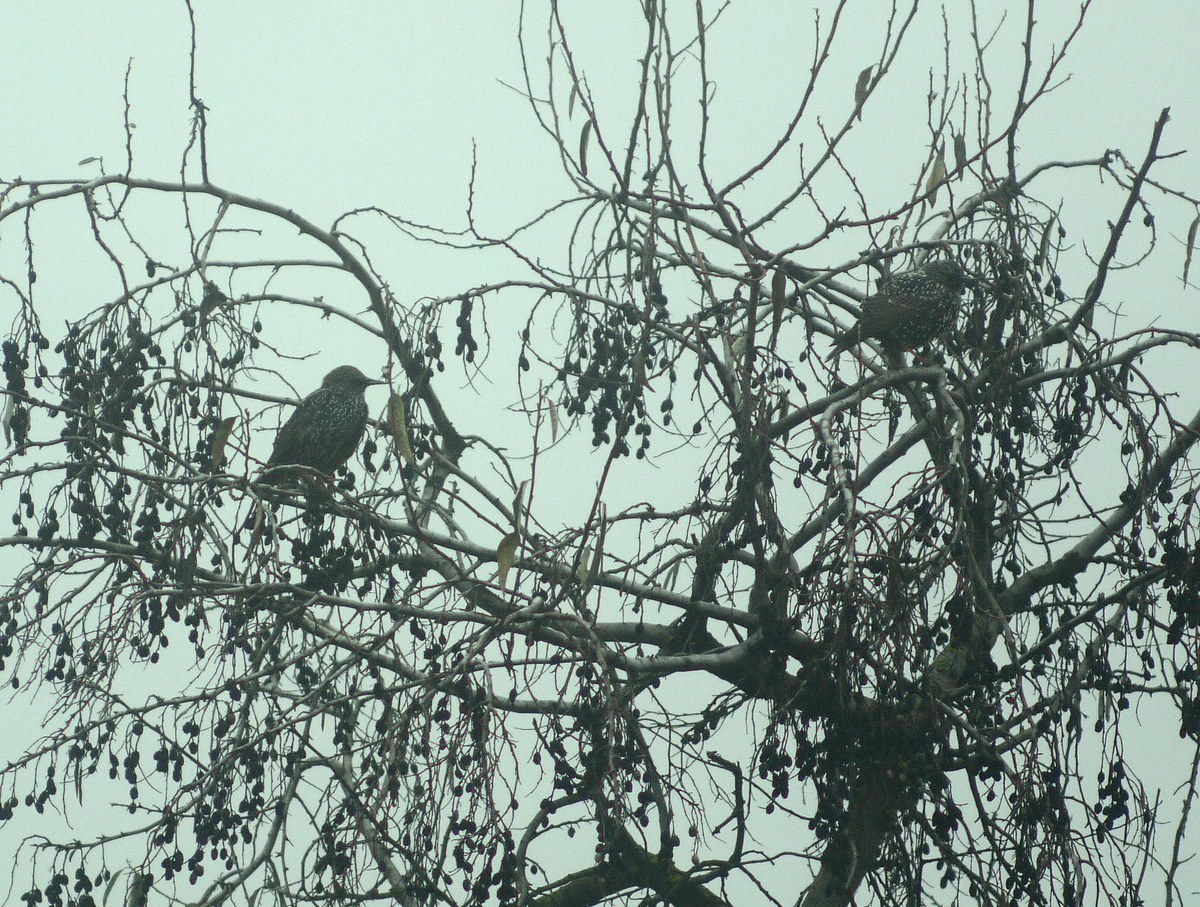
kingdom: Animalia
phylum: Chordata
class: Aves
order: Passeriformes
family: Sturnidae
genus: Sturnus
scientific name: Sturnus vulgaris
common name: Common starling
